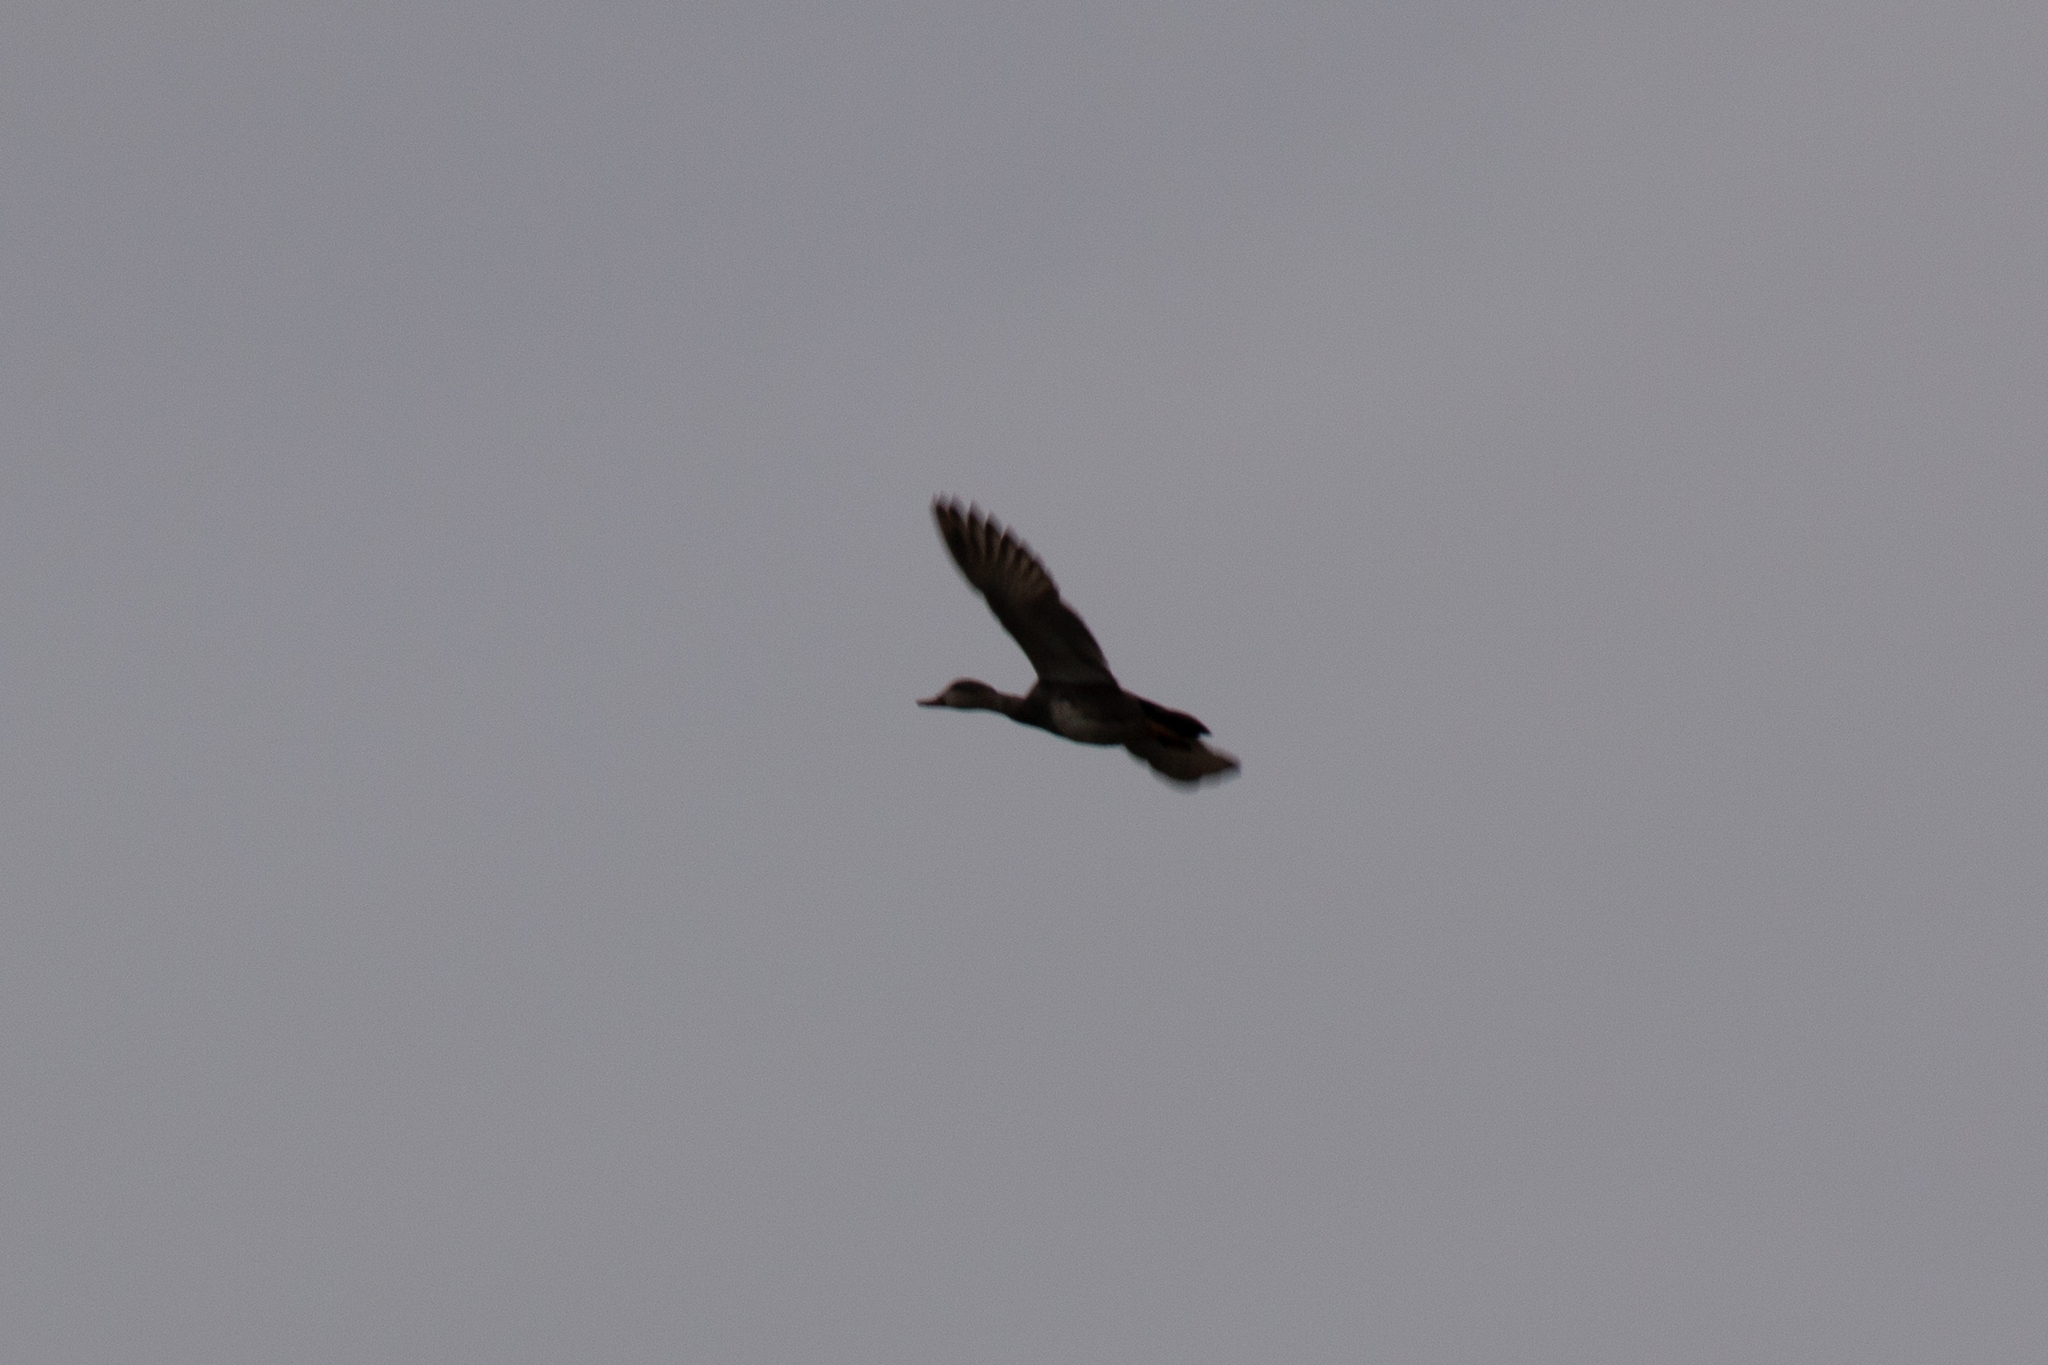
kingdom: Animalia
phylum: Chordata
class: Aves
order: Anseriformes
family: Anatidae
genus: Mareca
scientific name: Mareca strepera
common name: Gadwall
